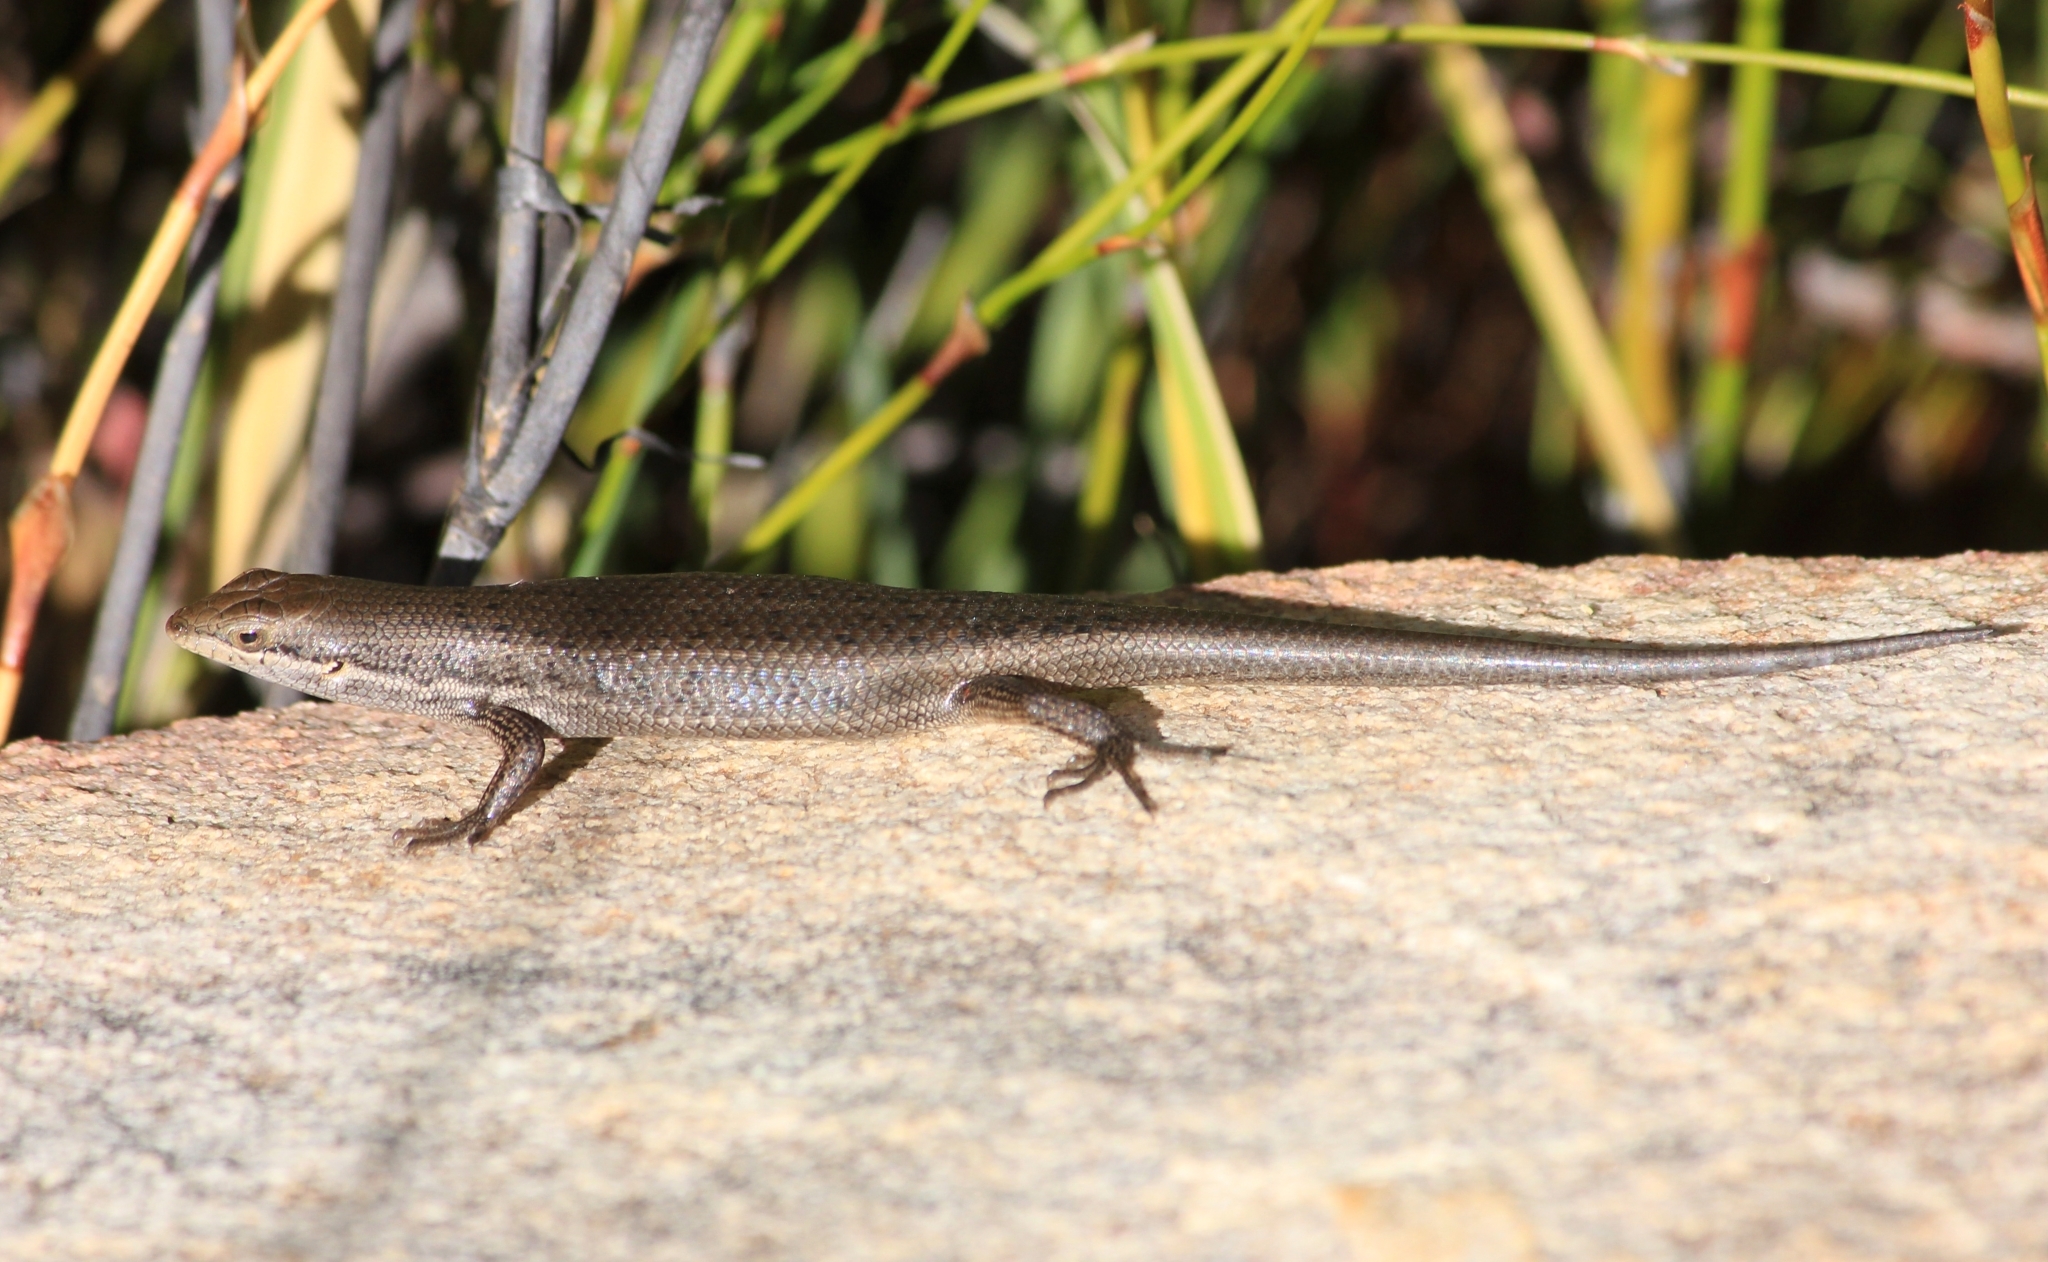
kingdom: Animalia
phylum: Chordata
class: Squamata
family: Scincidae
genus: Trachylepis
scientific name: Trachylepis variegata
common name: Variegated skink
